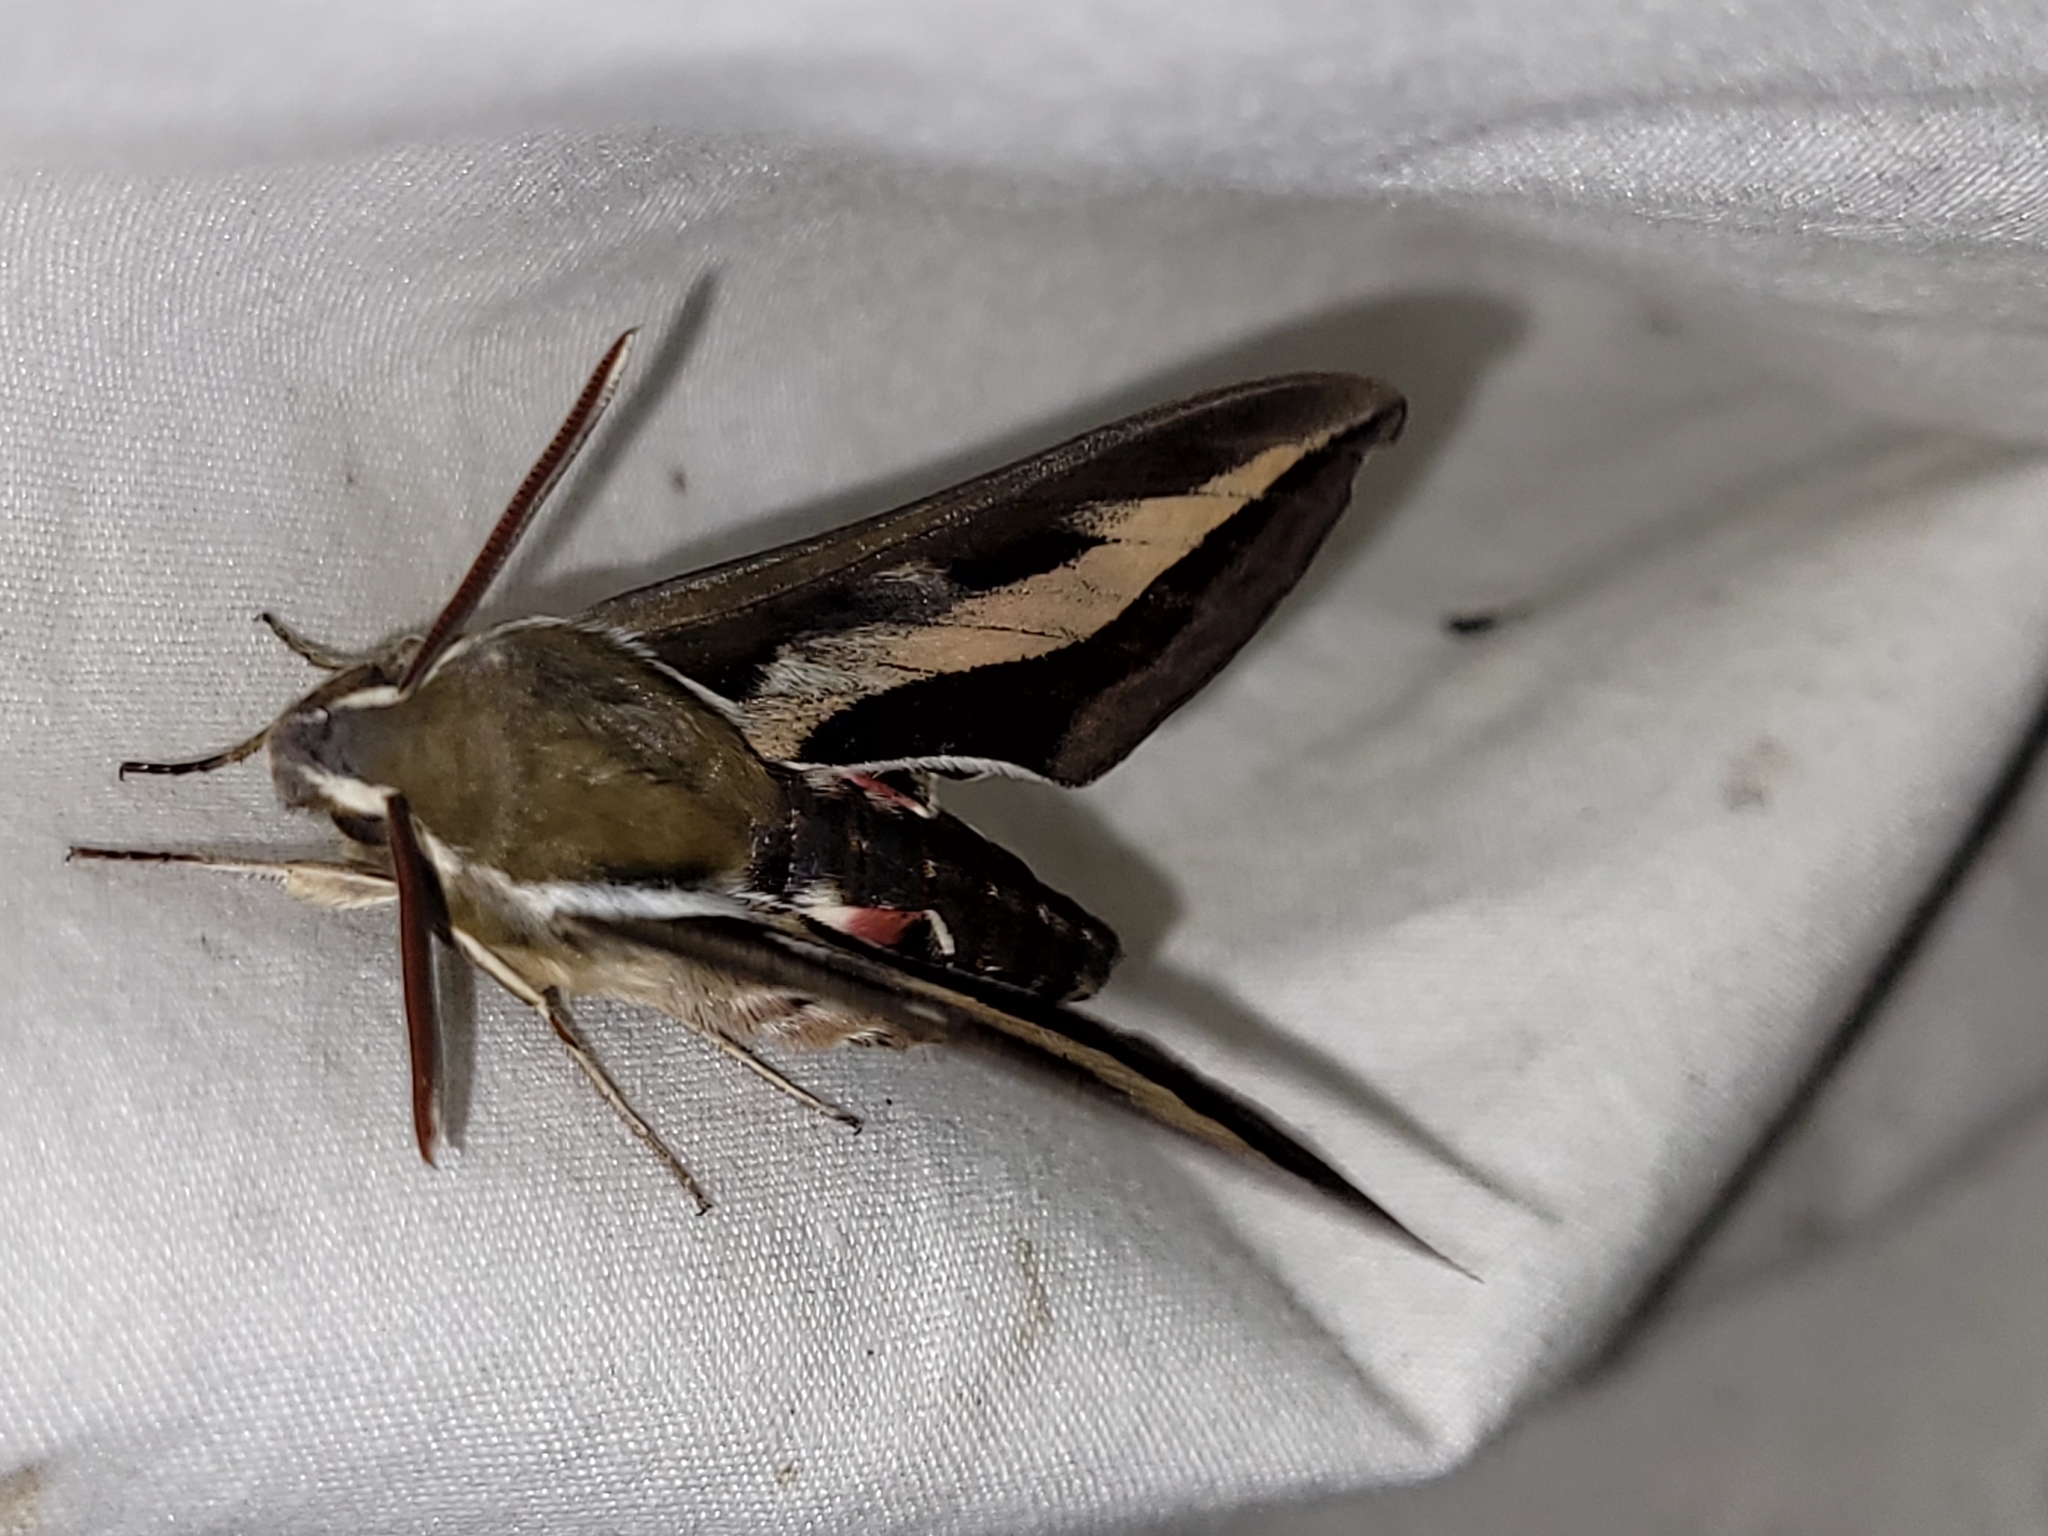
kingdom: Animalia
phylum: Arthropoda
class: Insecta
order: Lepidoptera
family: Sphingidae
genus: Hyles
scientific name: Hyles gallii
